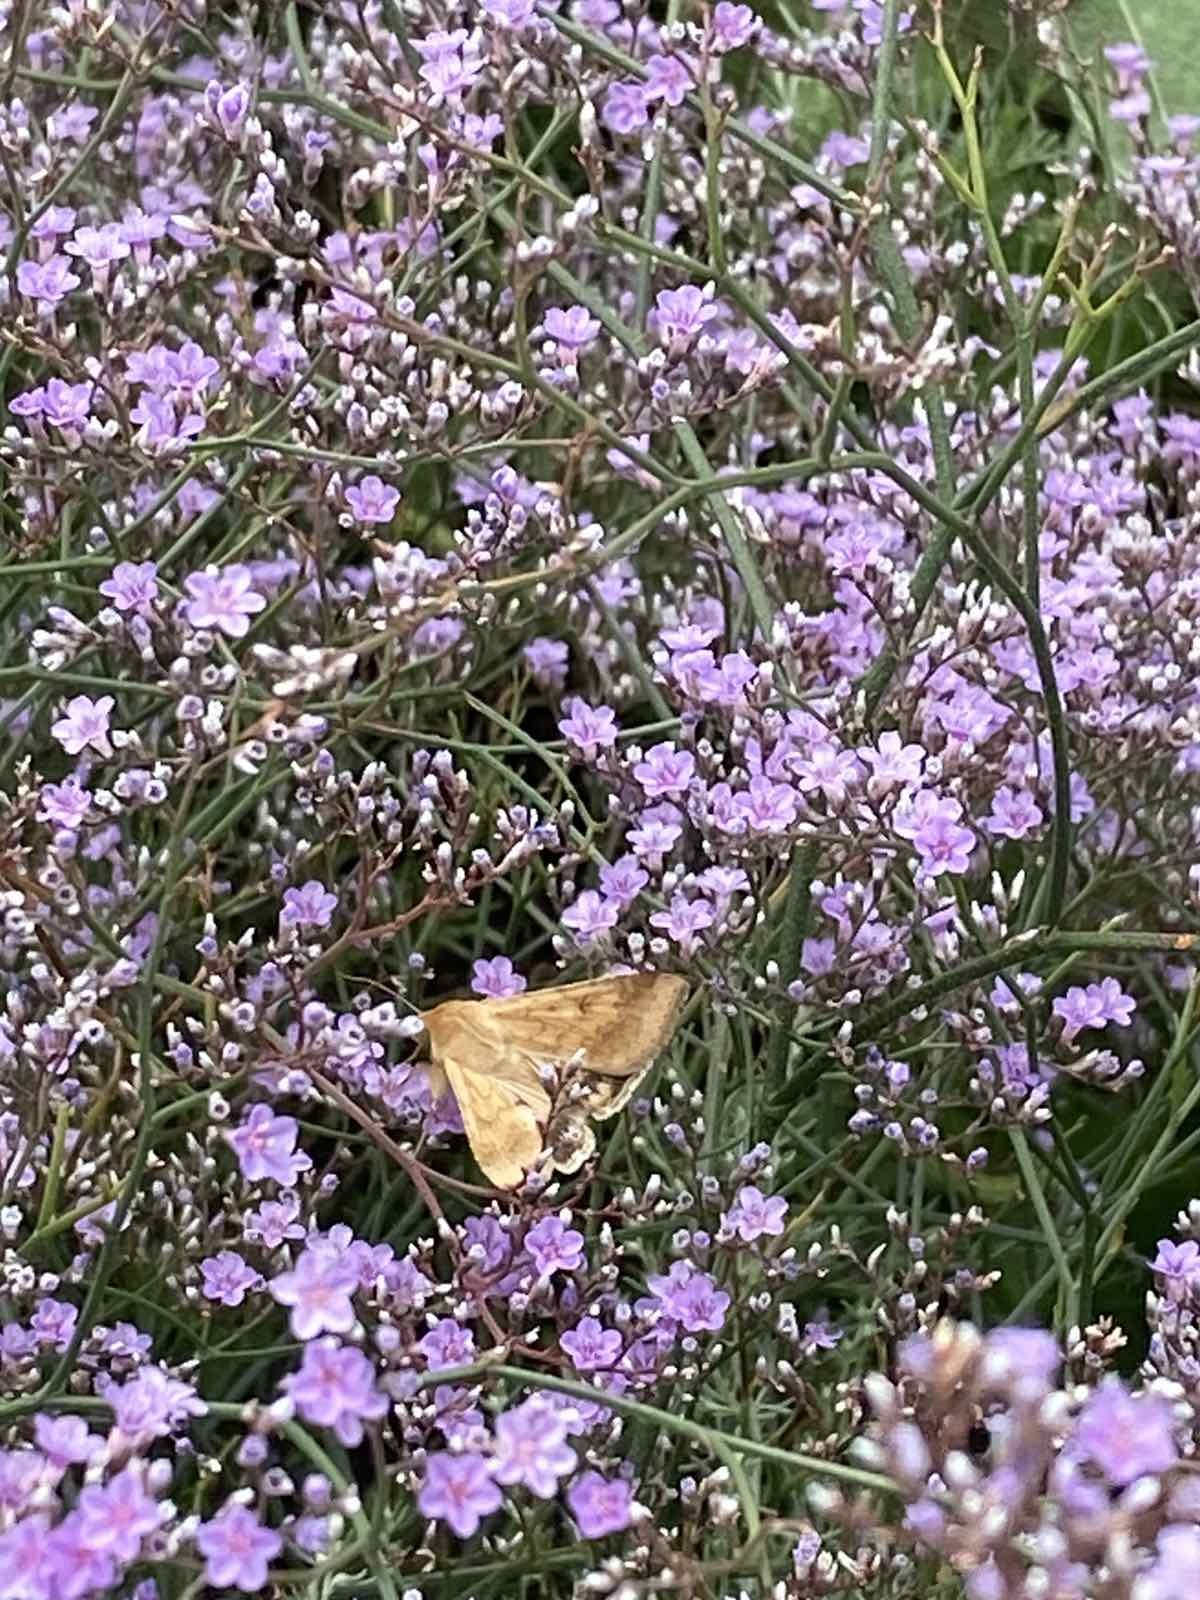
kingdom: Animalia
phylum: Arthropoda
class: Insecta
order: Lepidoptera
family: Noctuidae
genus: Helicoverpa
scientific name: Helicoverpa armigera
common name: Cotton bollworm
